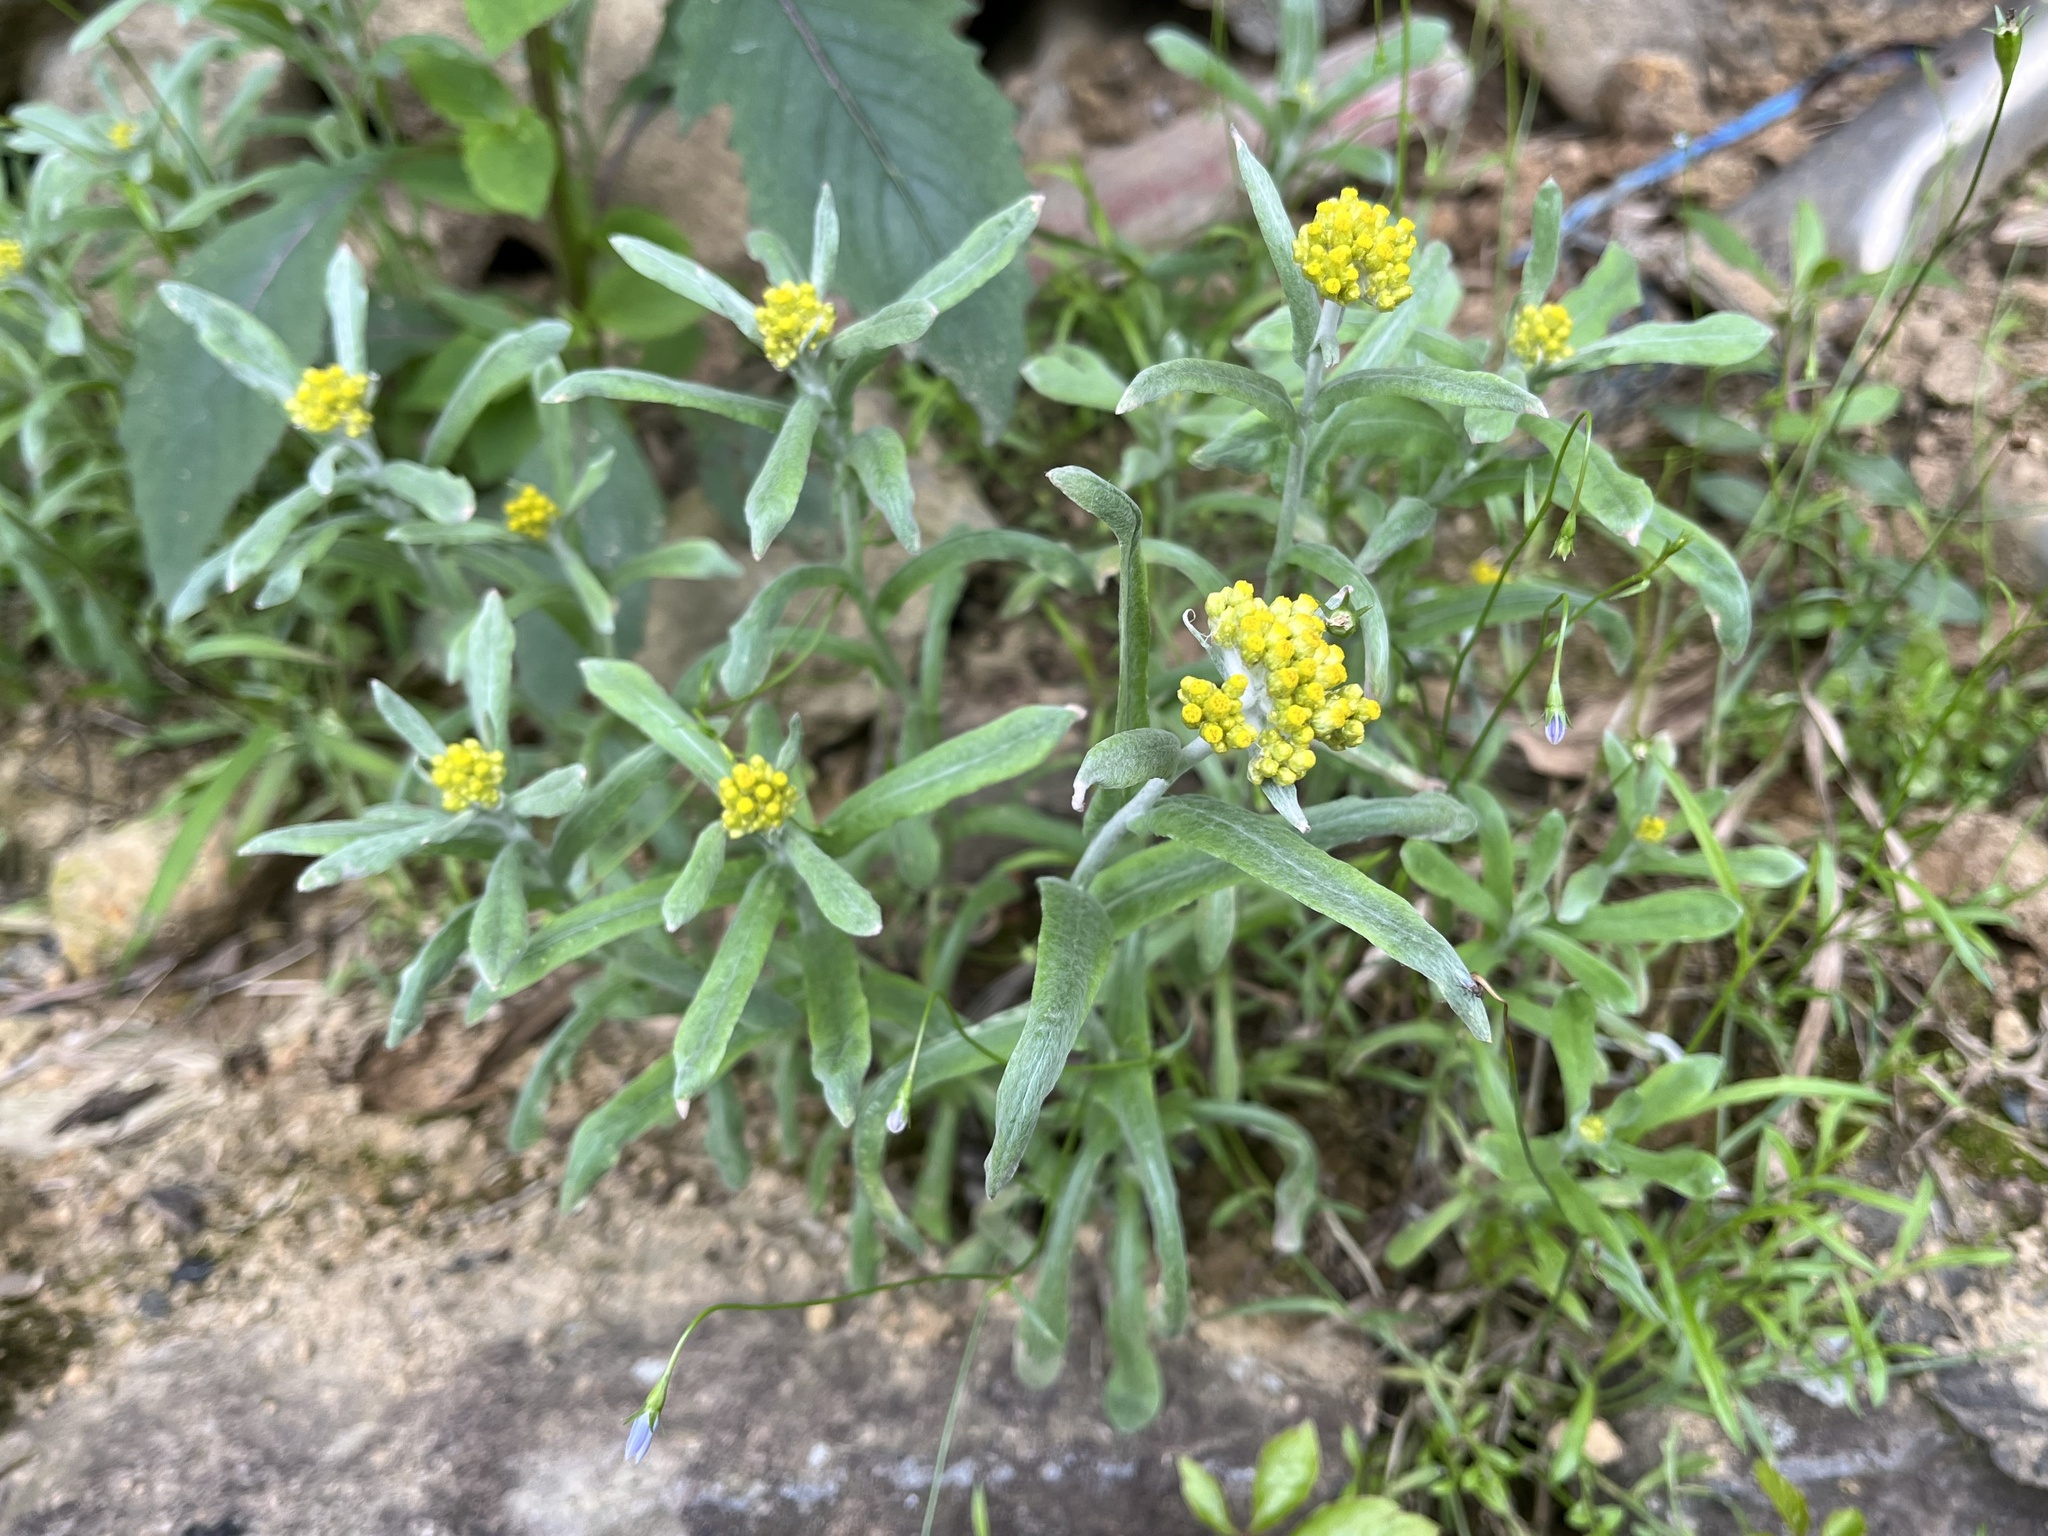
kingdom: Plantae
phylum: Tracheophyta
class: Magnoliopsida
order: Asterales
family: Asteraceae
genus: Pseudognaphalium
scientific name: Pseudognaphalium affine
